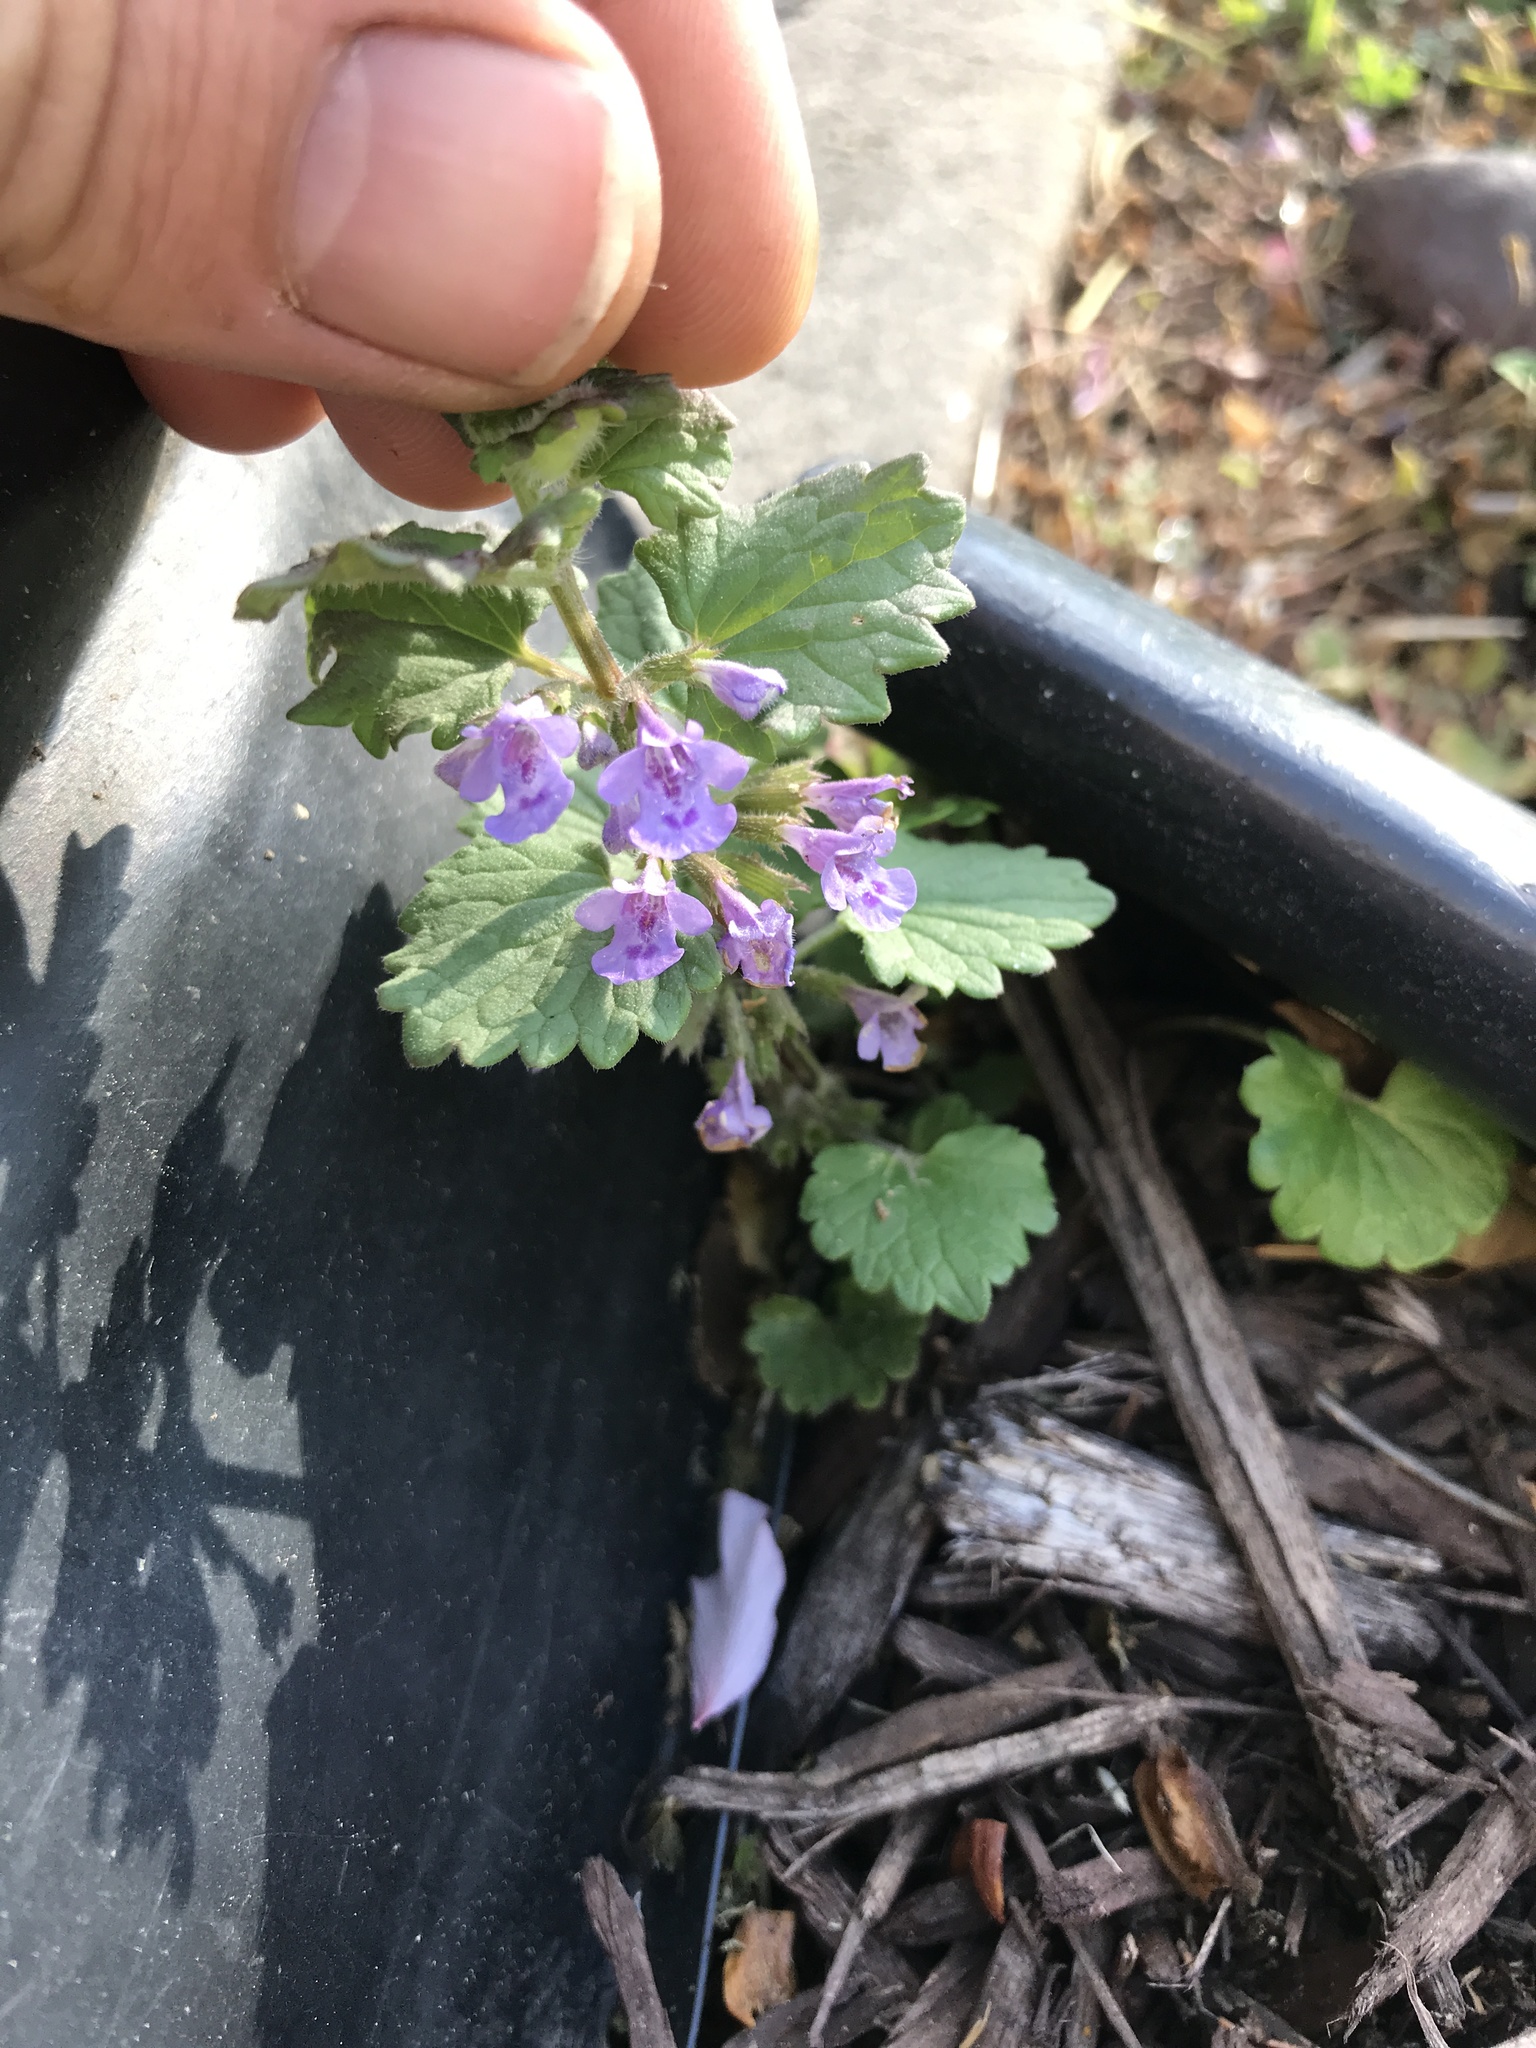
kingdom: Plantae
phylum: Tracheophyta
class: Magnoliopsida
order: Lamiales
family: Lamiaceae
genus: Glechoma
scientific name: Glechoma hederacea
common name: Ground ivy
